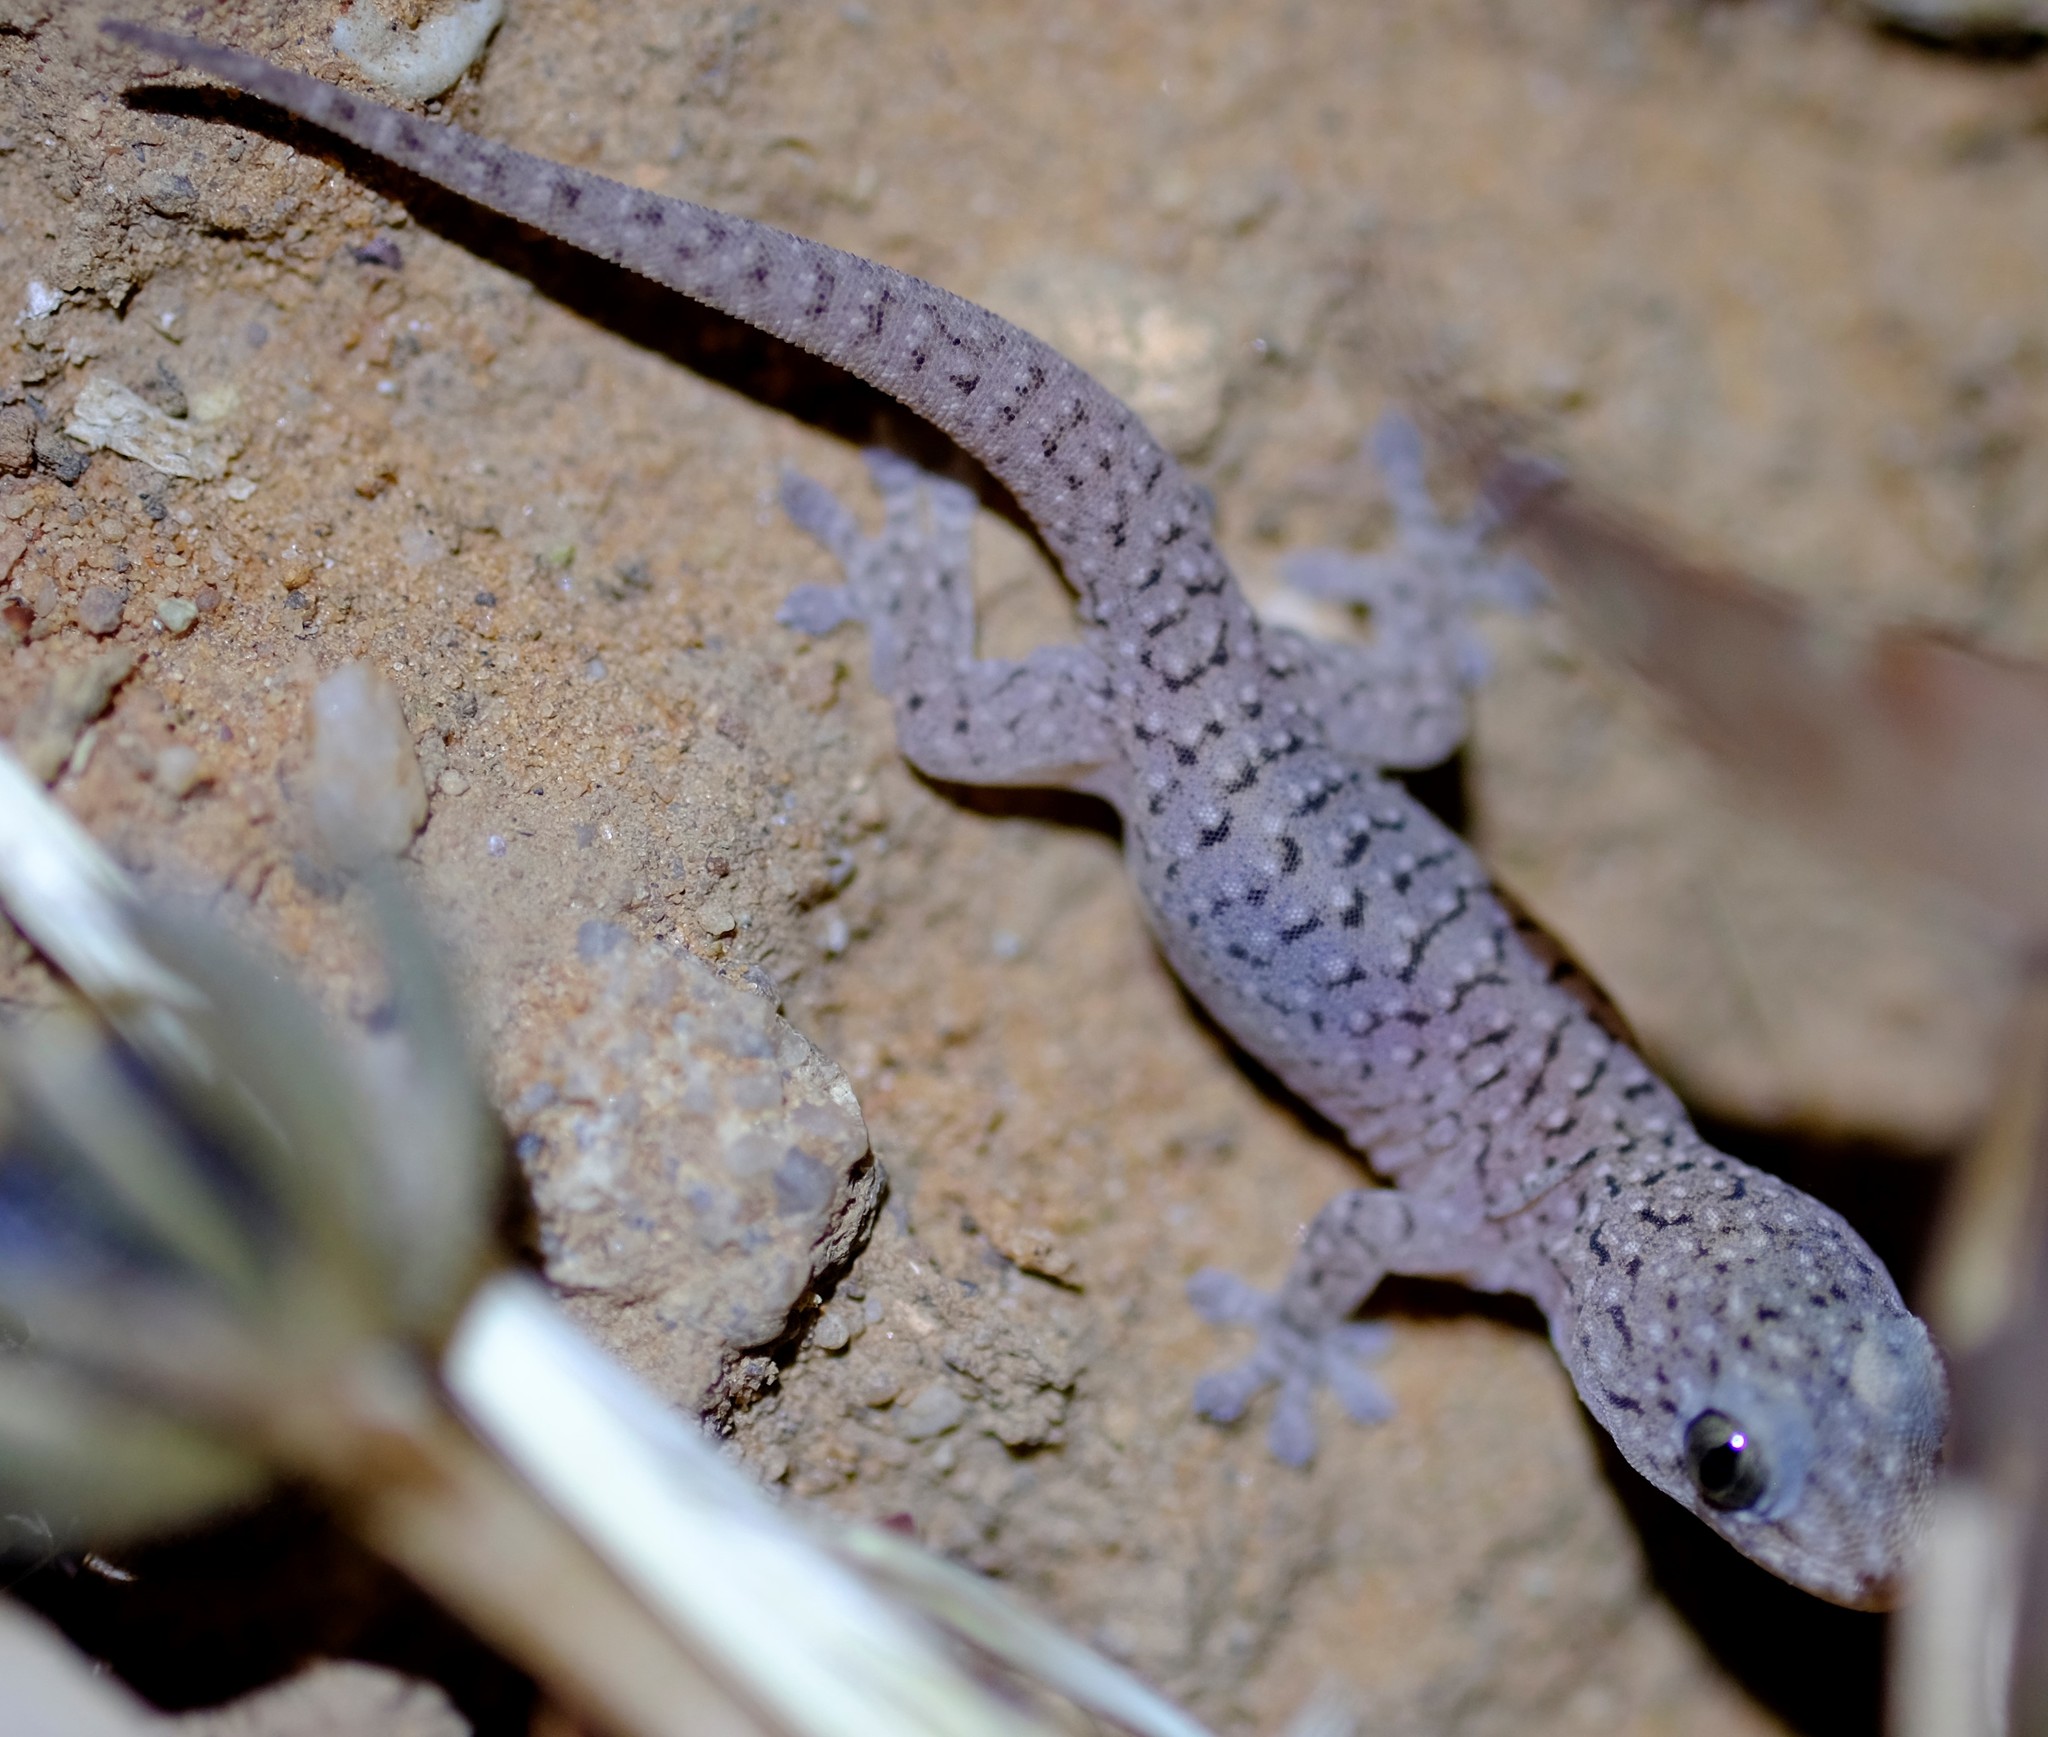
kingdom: Animalia
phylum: Chordata
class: Squamata
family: Gekkonidae
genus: Gehyra
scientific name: Gehyra lazelli
